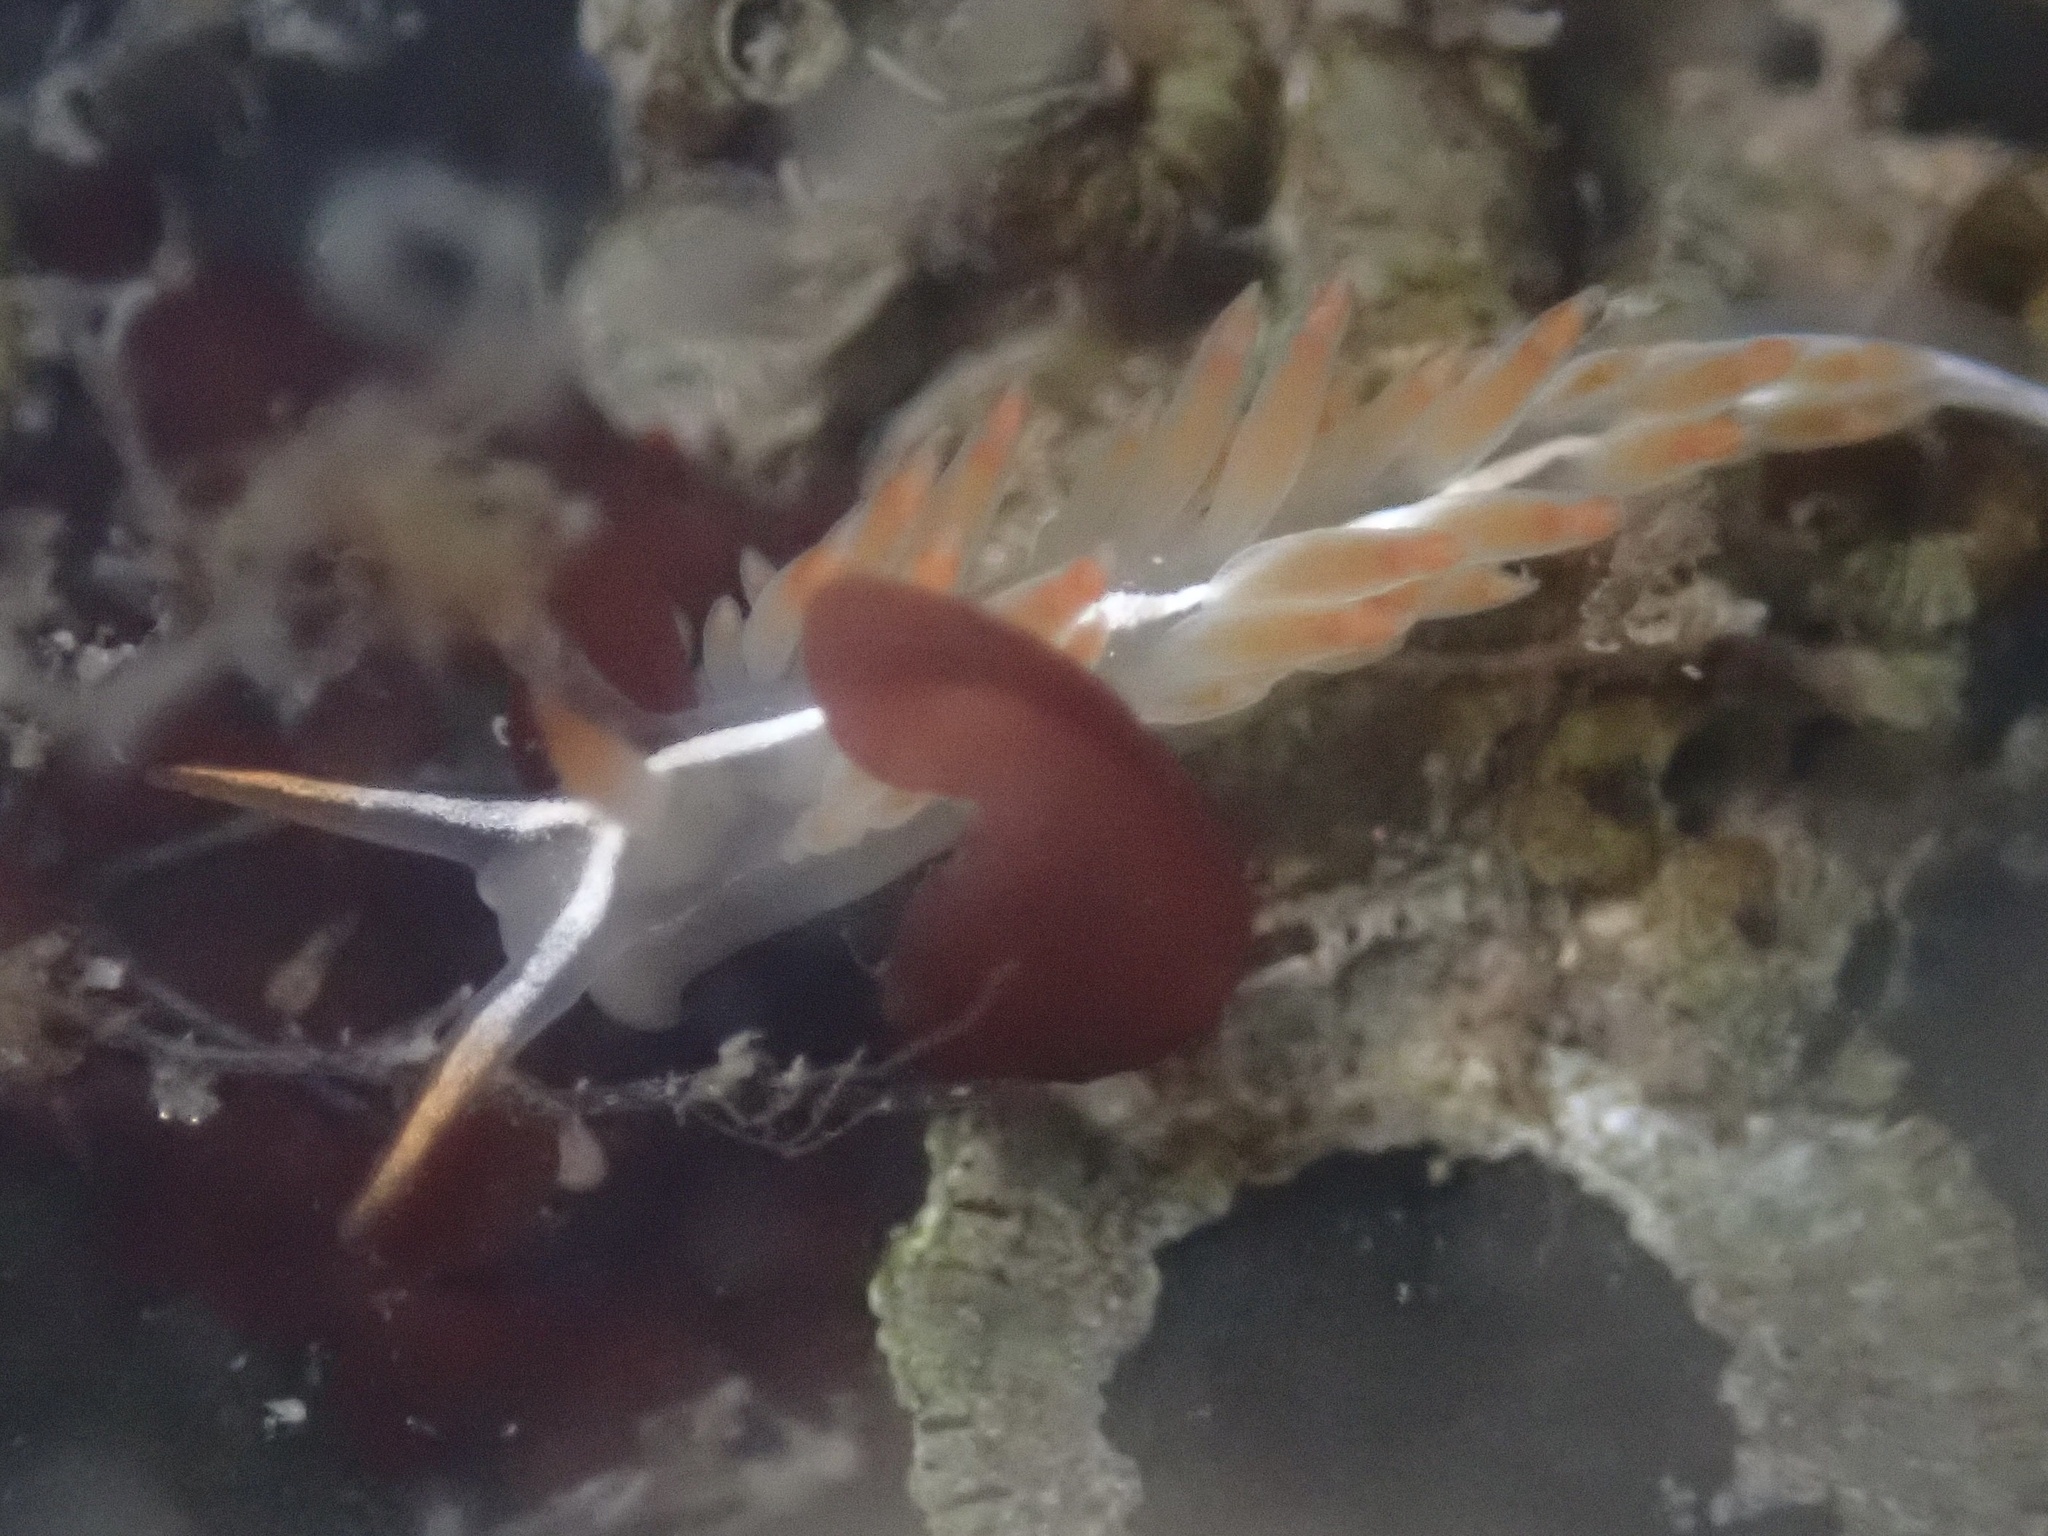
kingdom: Animalia
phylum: Mollusca
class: Gastropoda
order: Nudibranchia
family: Coryphellidae
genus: Coryphella
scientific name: Coryphella trilineata
